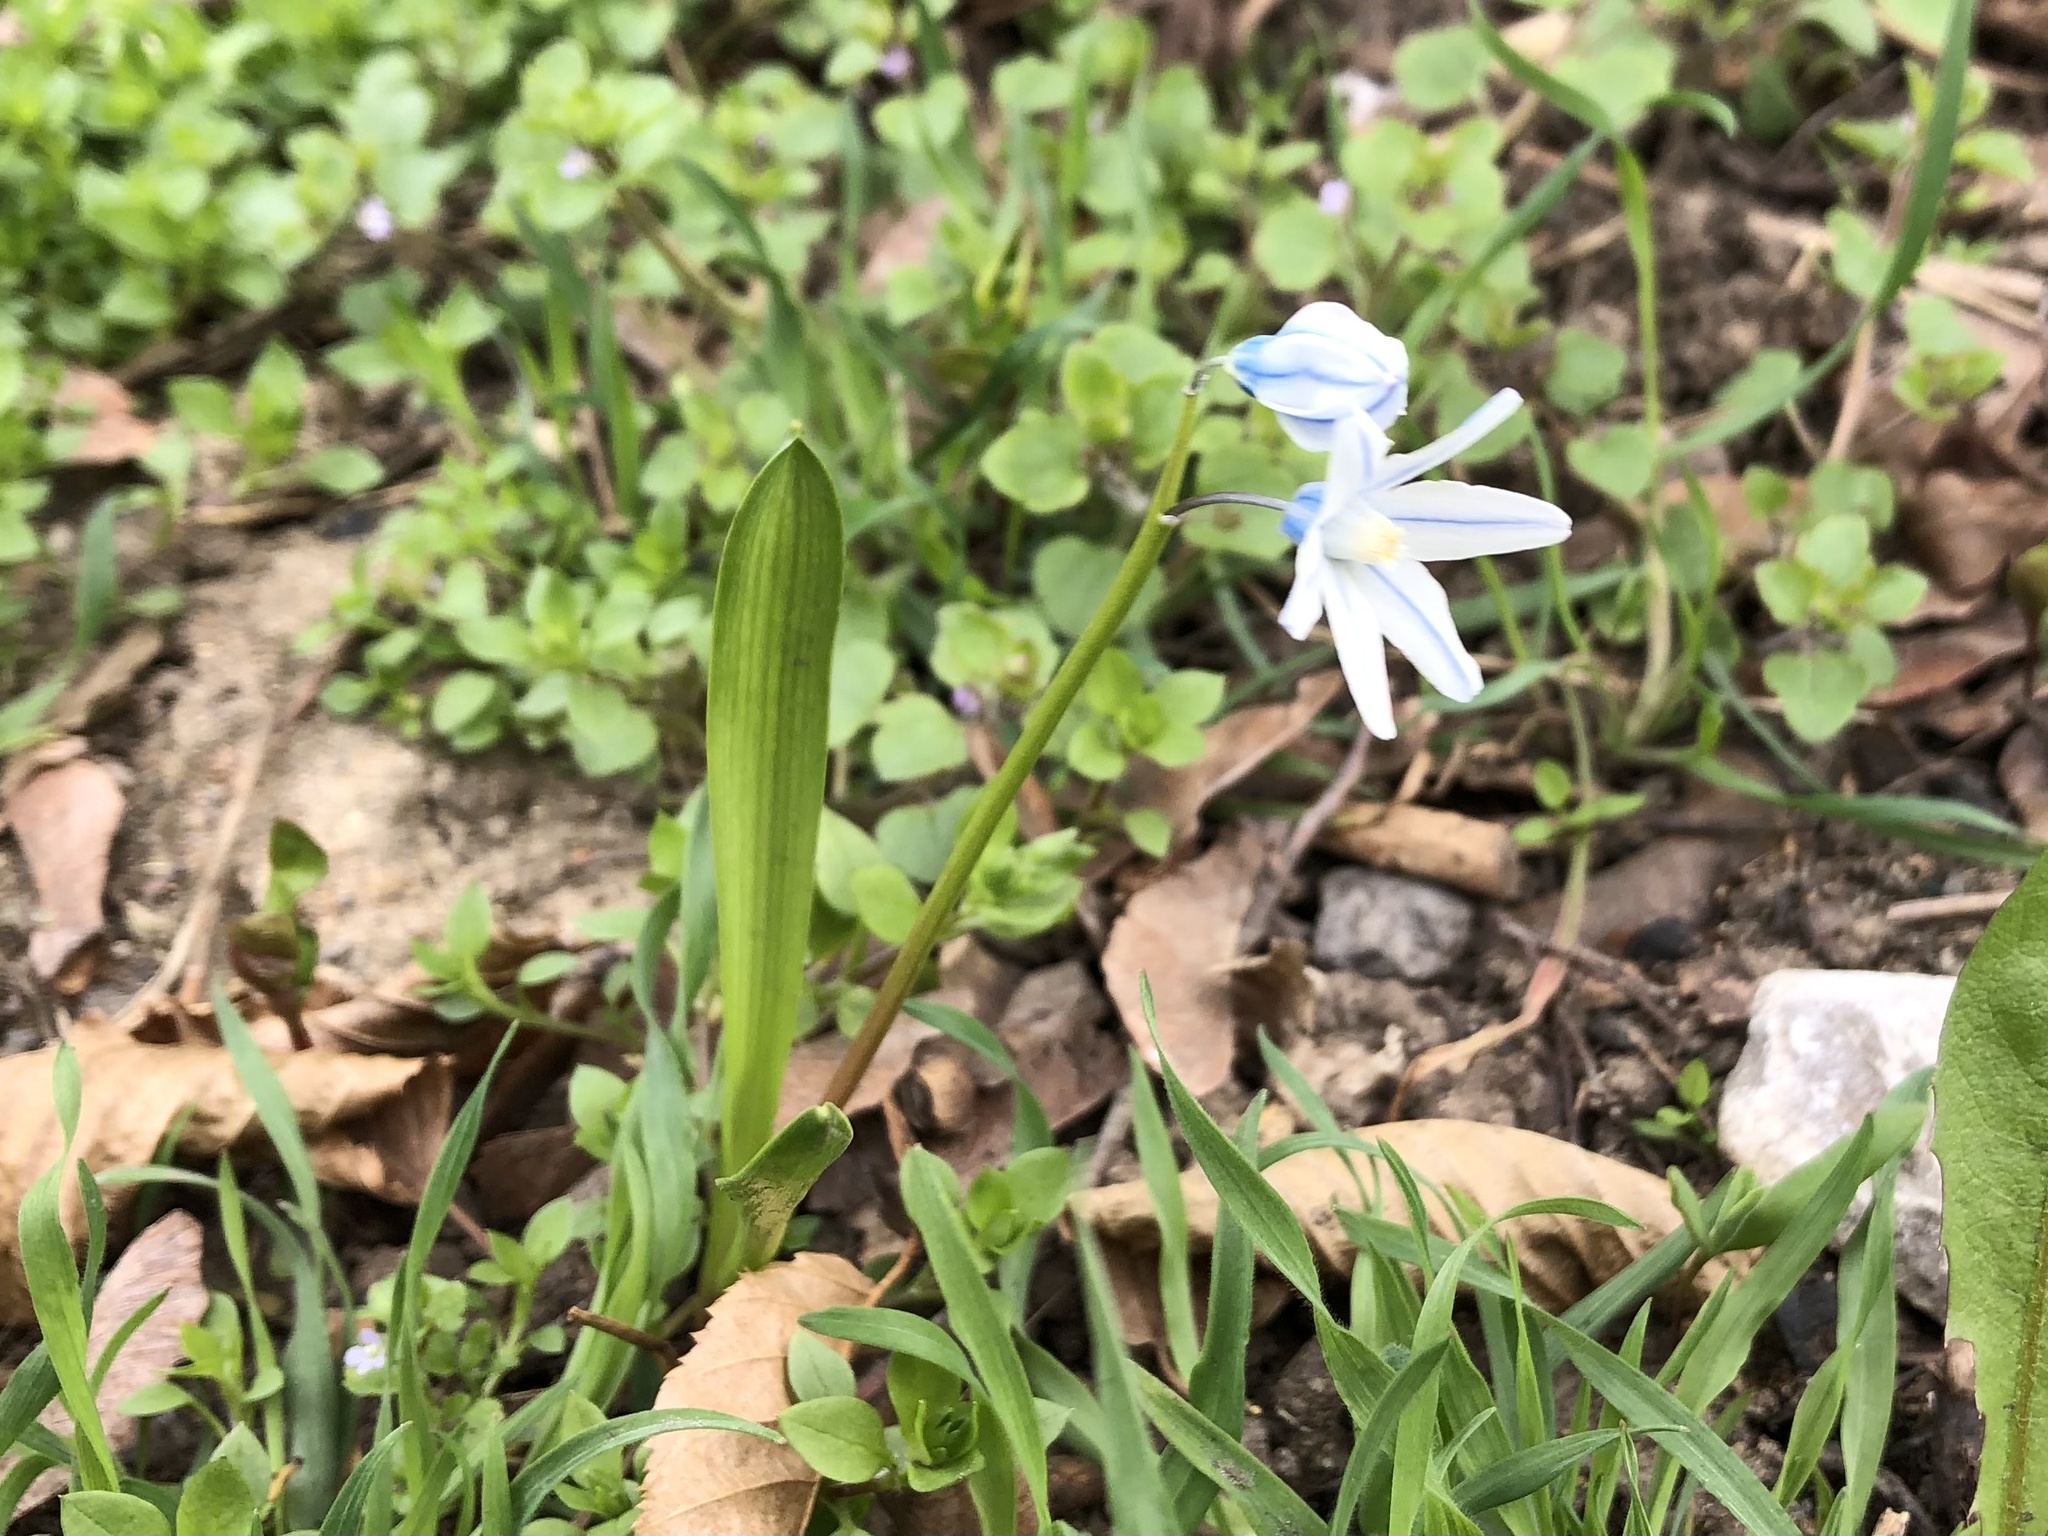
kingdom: Plantae
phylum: Tracheophyta
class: Liliopsida
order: Asparagales
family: Asparagaceae
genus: Puschkinia
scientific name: Puschkinia scilloides
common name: Striped squill
